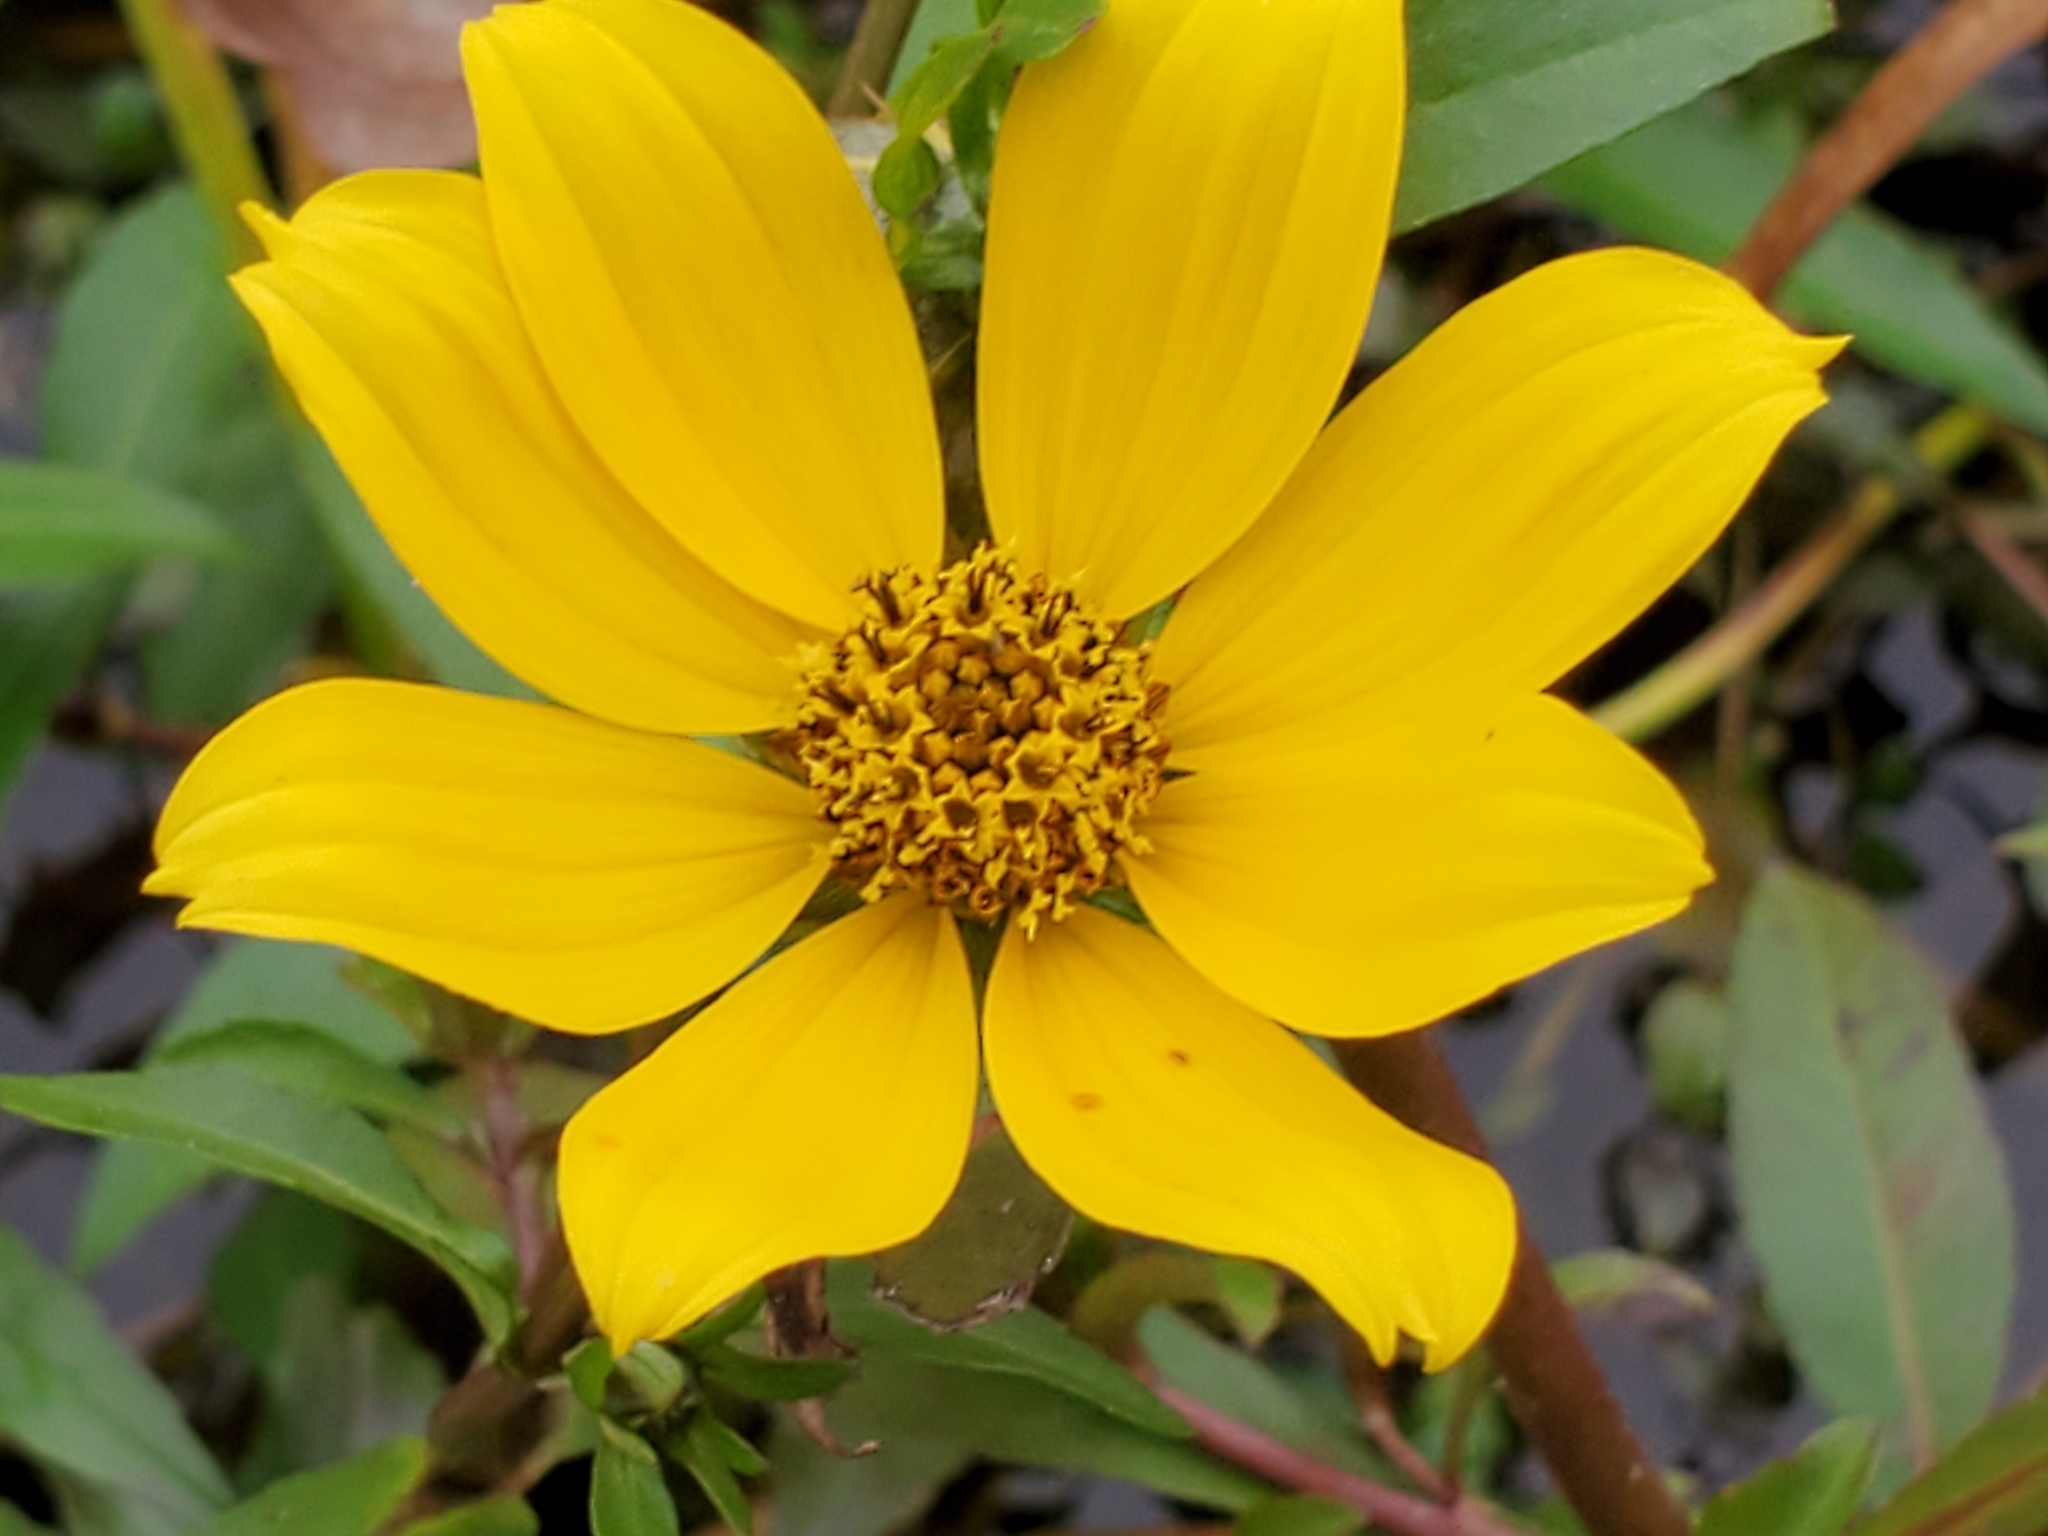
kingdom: Plantae
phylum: Tracheophyta
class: Magnoliopsida
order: Asterales
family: Asteraceae
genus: Bidens
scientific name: Bidens laevis
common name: Larger bur-marigold
